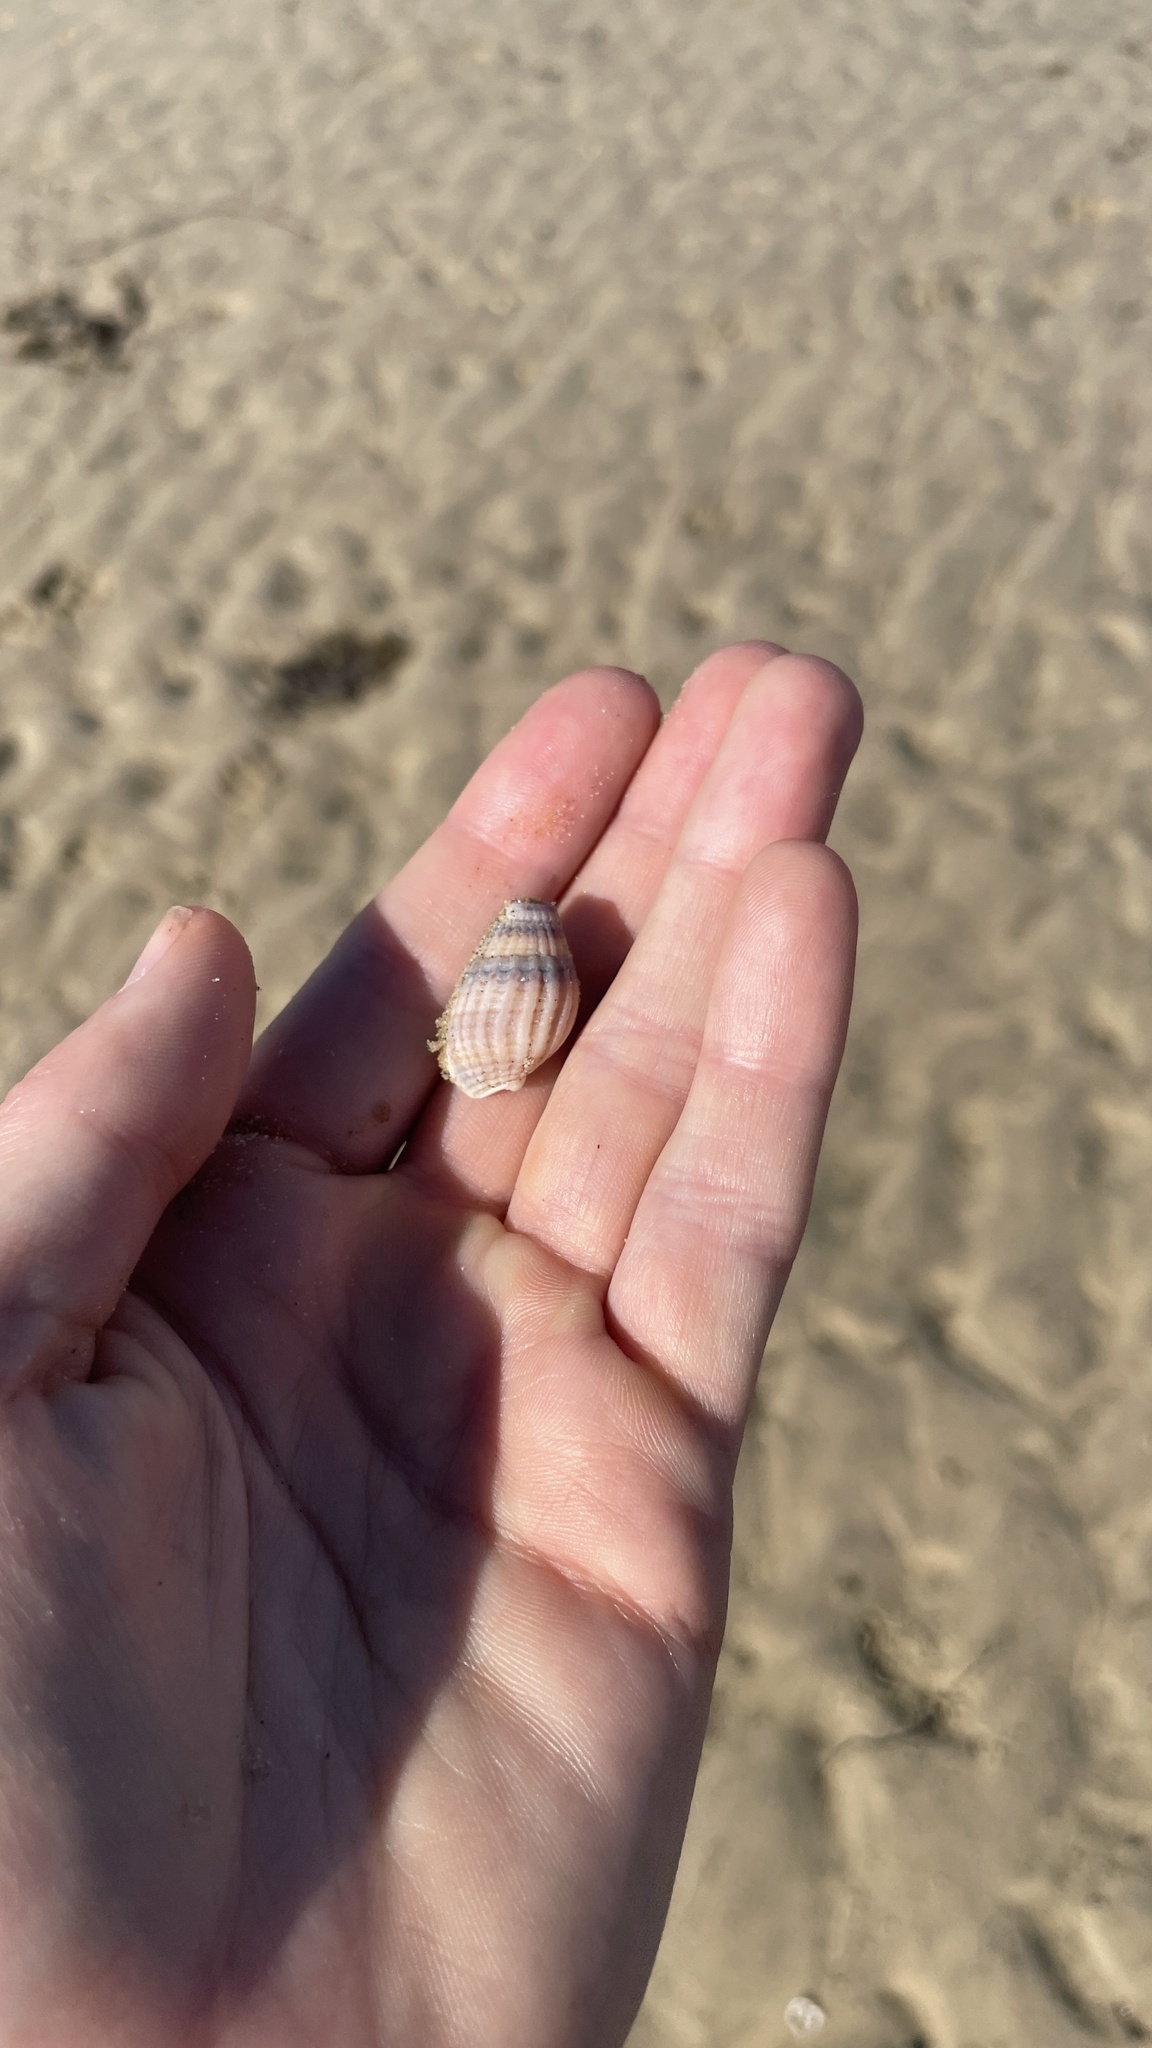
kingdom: Animalia
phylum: Mollusca
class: Gastropoda
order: Neogastropoda
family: Nassariidae
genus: Tritia
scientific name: Tritia reticulata
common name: Netted dog whelk
